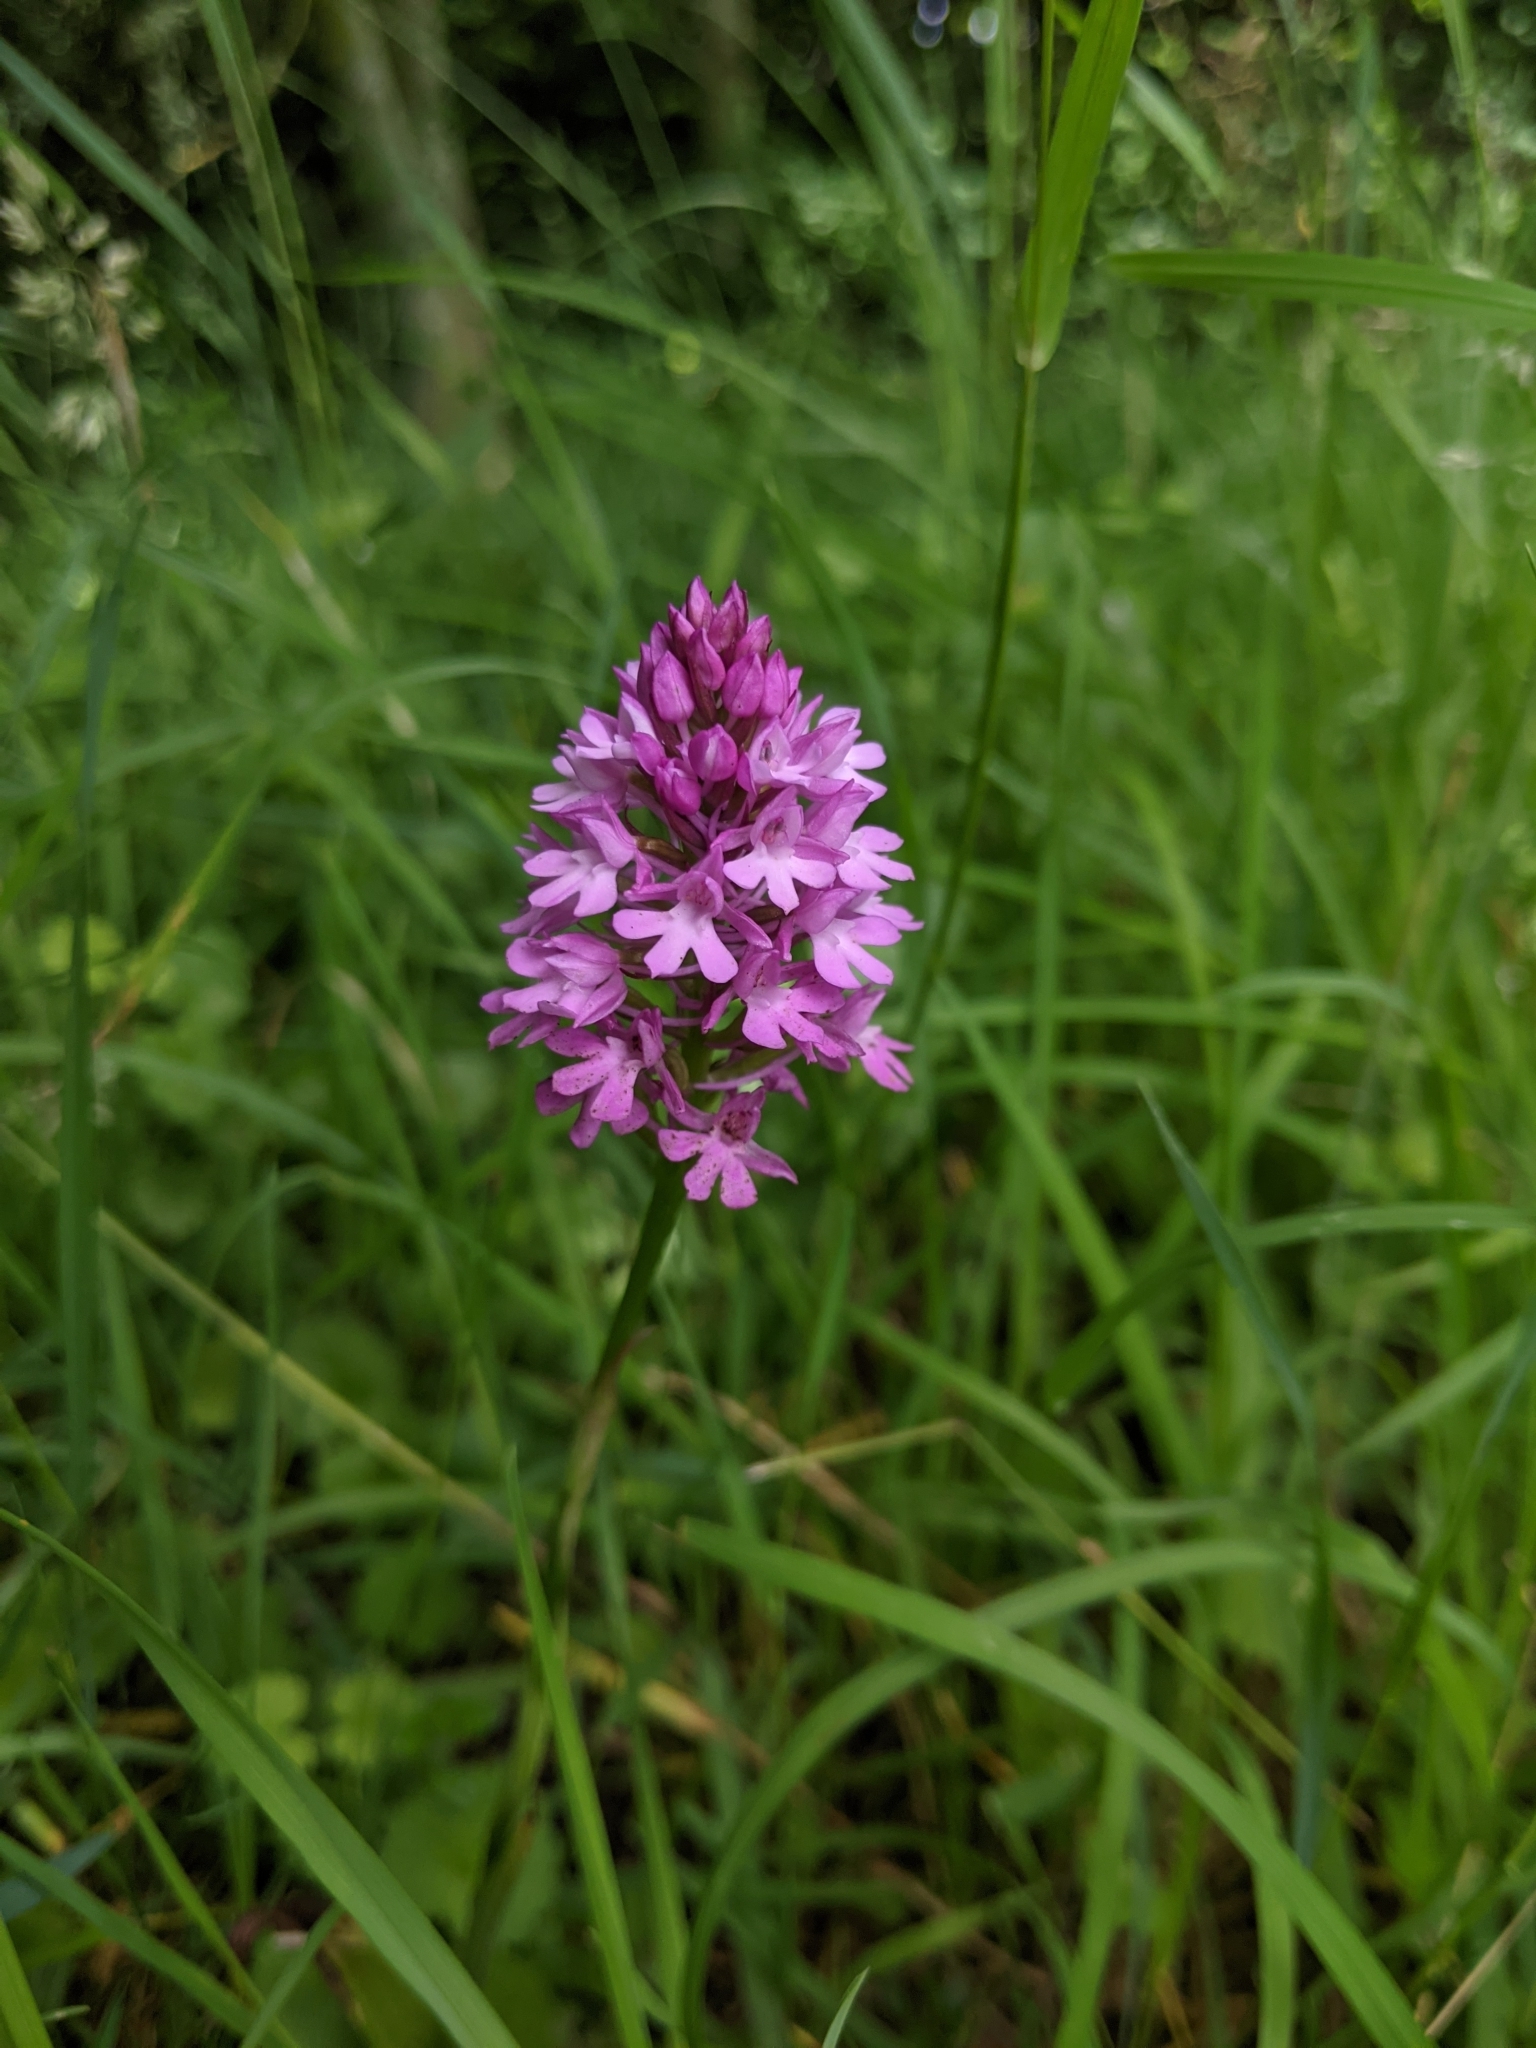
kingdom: Plantae
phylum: Tracheophyta
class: Liliopsida
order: Asparagales
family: Orchidaceae
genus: Anacamptis
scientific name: Anacamptis pyramidalis
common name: Pyramidal orchid
